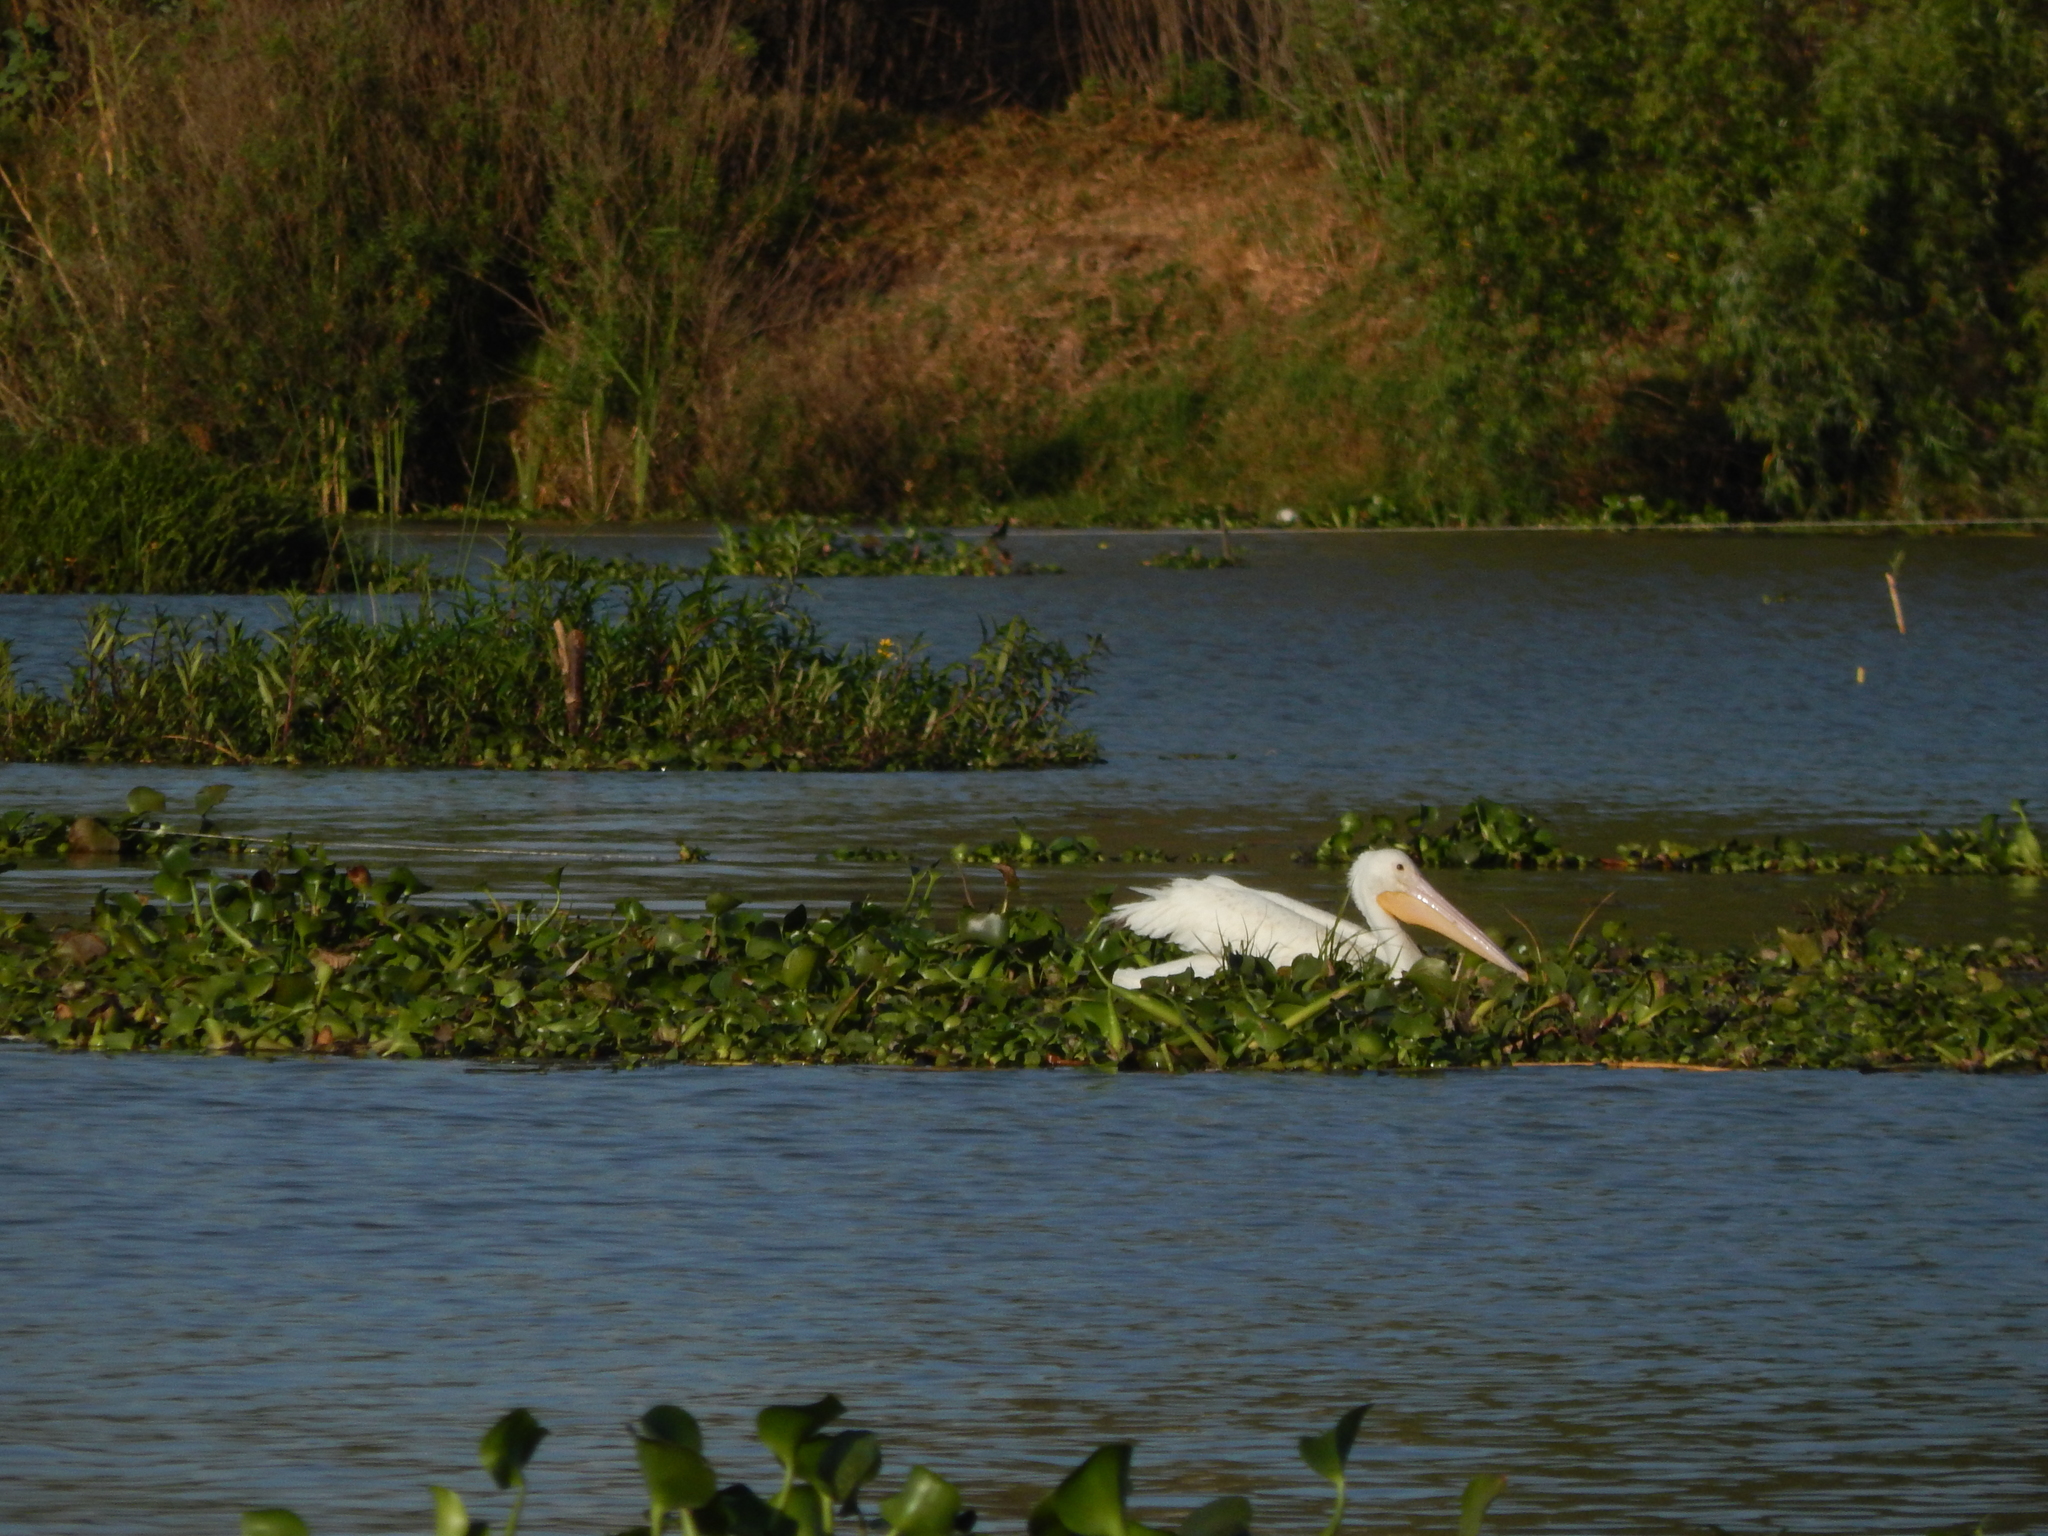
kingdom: Animalia
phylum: Chordata
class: Aves
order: Pelecaniformes
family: Pelecanidae
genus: Pelecanus
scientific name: Pelecanus erythrorhynchos
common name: American white pelican
